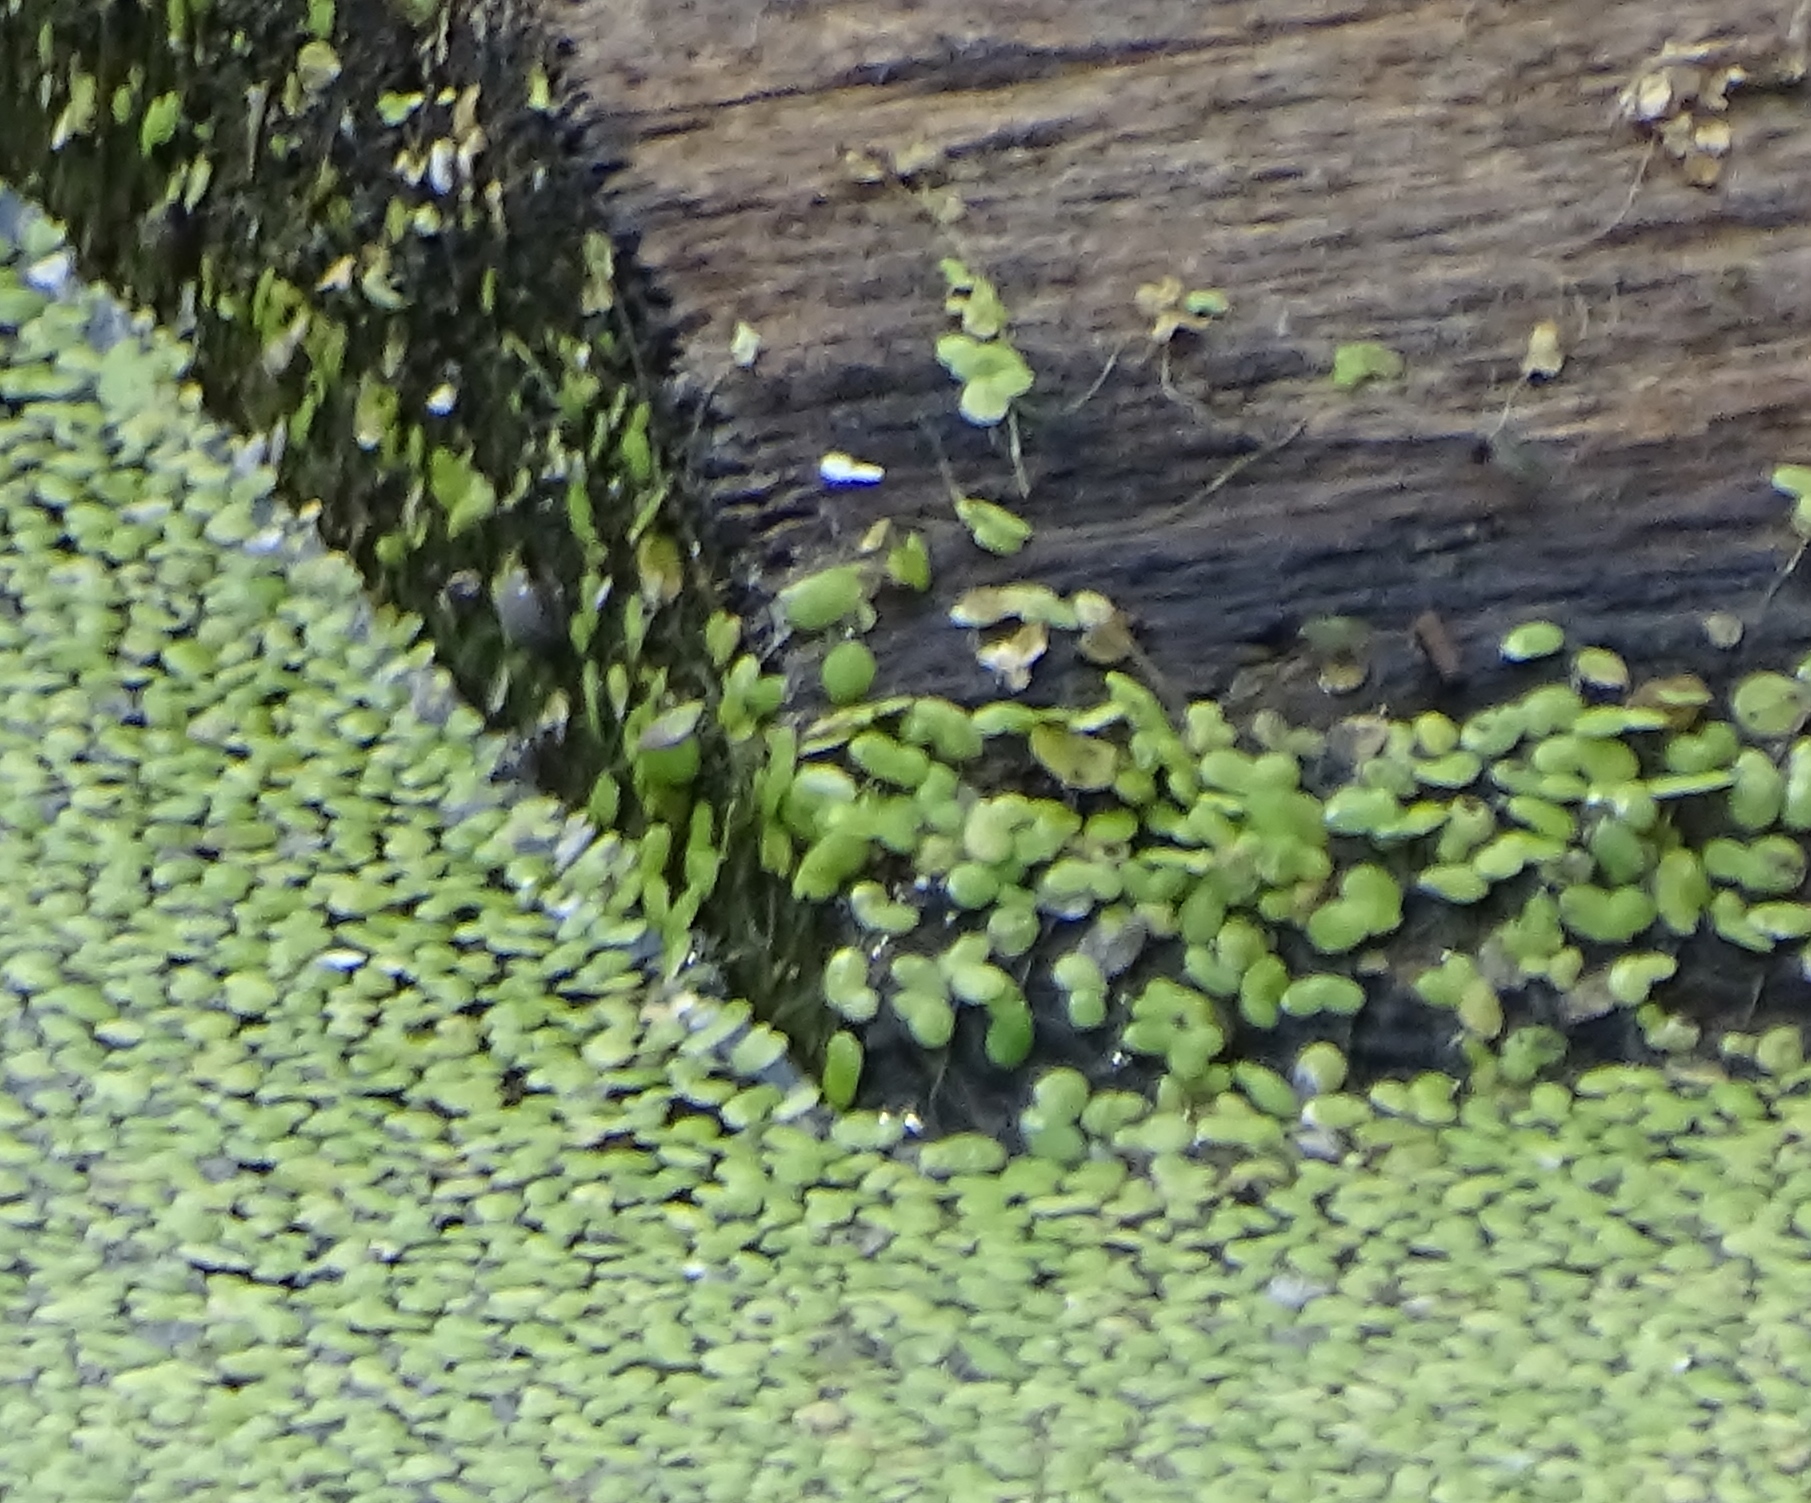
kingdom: Plantae
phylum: Tracheophyta
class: Liliopsida
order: Alismatales
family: Araceae
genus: Lemna
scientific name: Lemna minor
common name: Common duckweed
